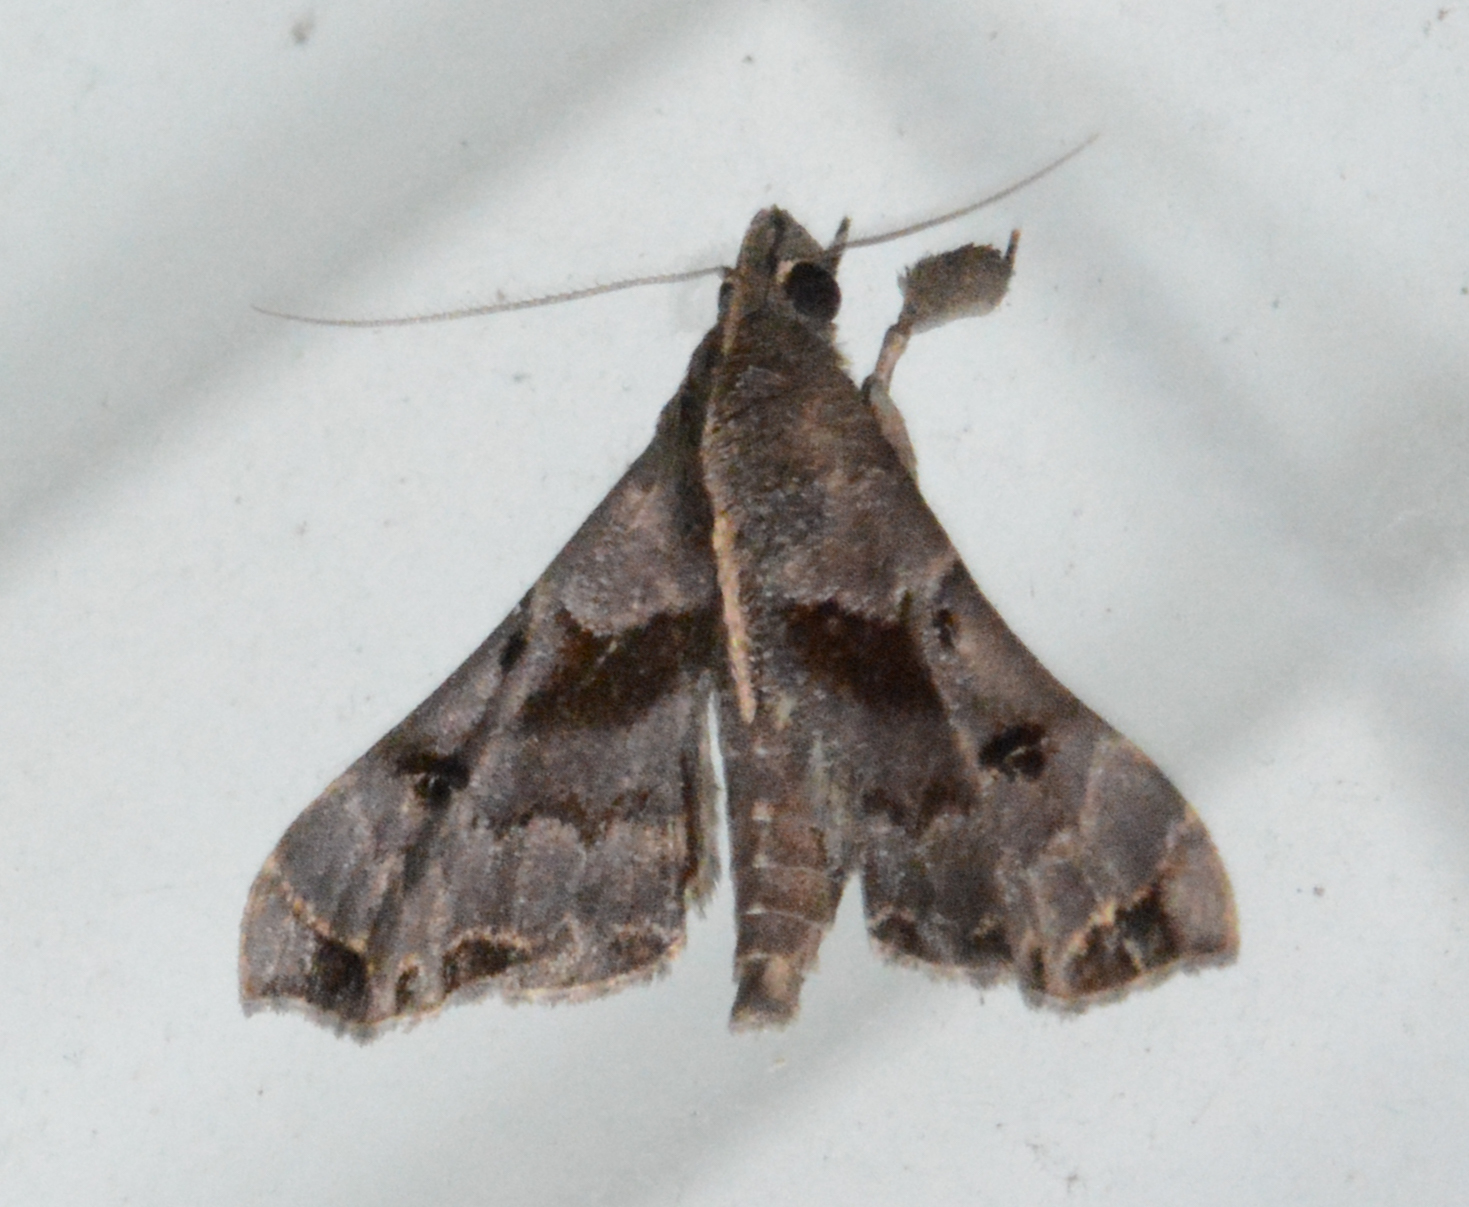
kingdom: Animalia
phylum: Arthropoda
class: Insecta
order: Lepidoptera
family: Erebidae
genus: Palthis
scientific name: Palthis asopialis
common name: Faint-spotted palthis moth
